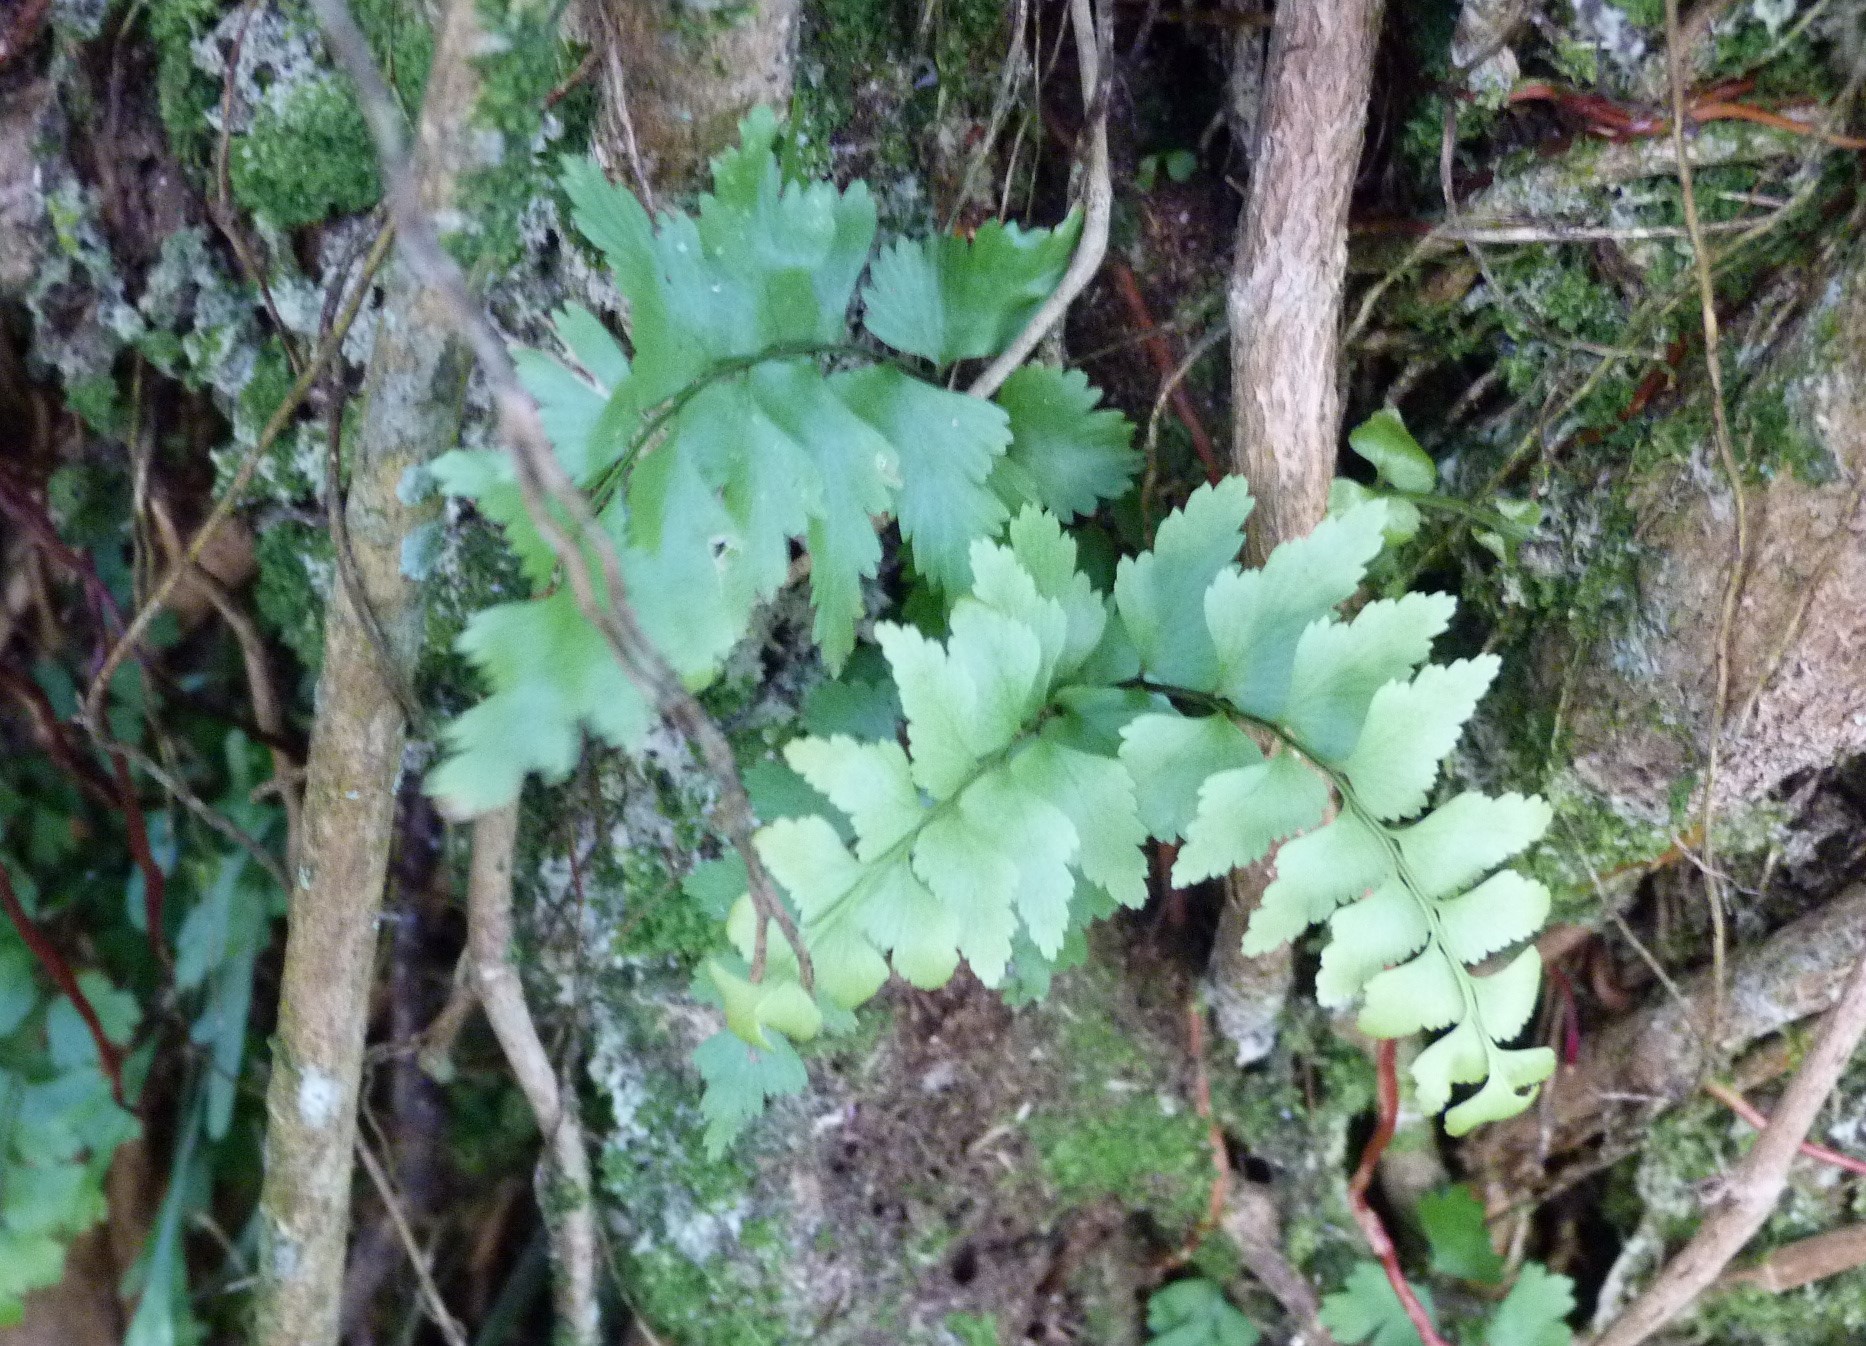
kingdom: Plantae
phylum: Tracheophyta
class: Polypodiopsida
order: Polypodiales
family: Aspleniaceae
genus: Asplenium
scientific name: Asplenium polyodon
